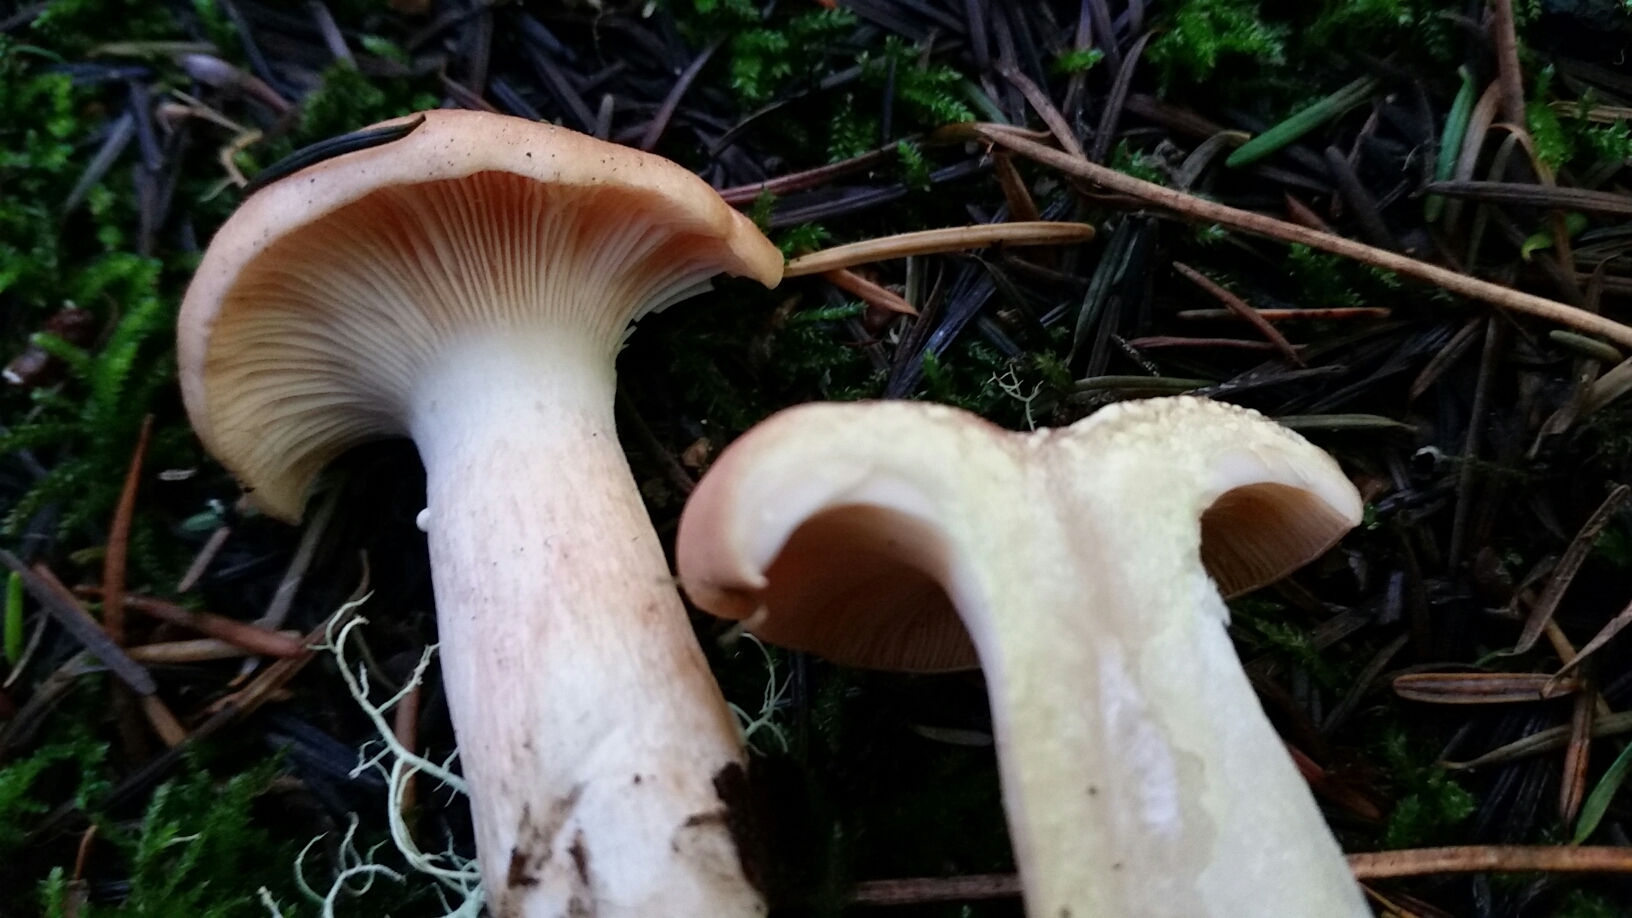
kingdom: Fungi
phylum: Basidiomycota
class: Agaricomycetes
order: Russulales
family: Russulaceae
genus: Lactarius
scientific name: Lactarius xanthogalactus
